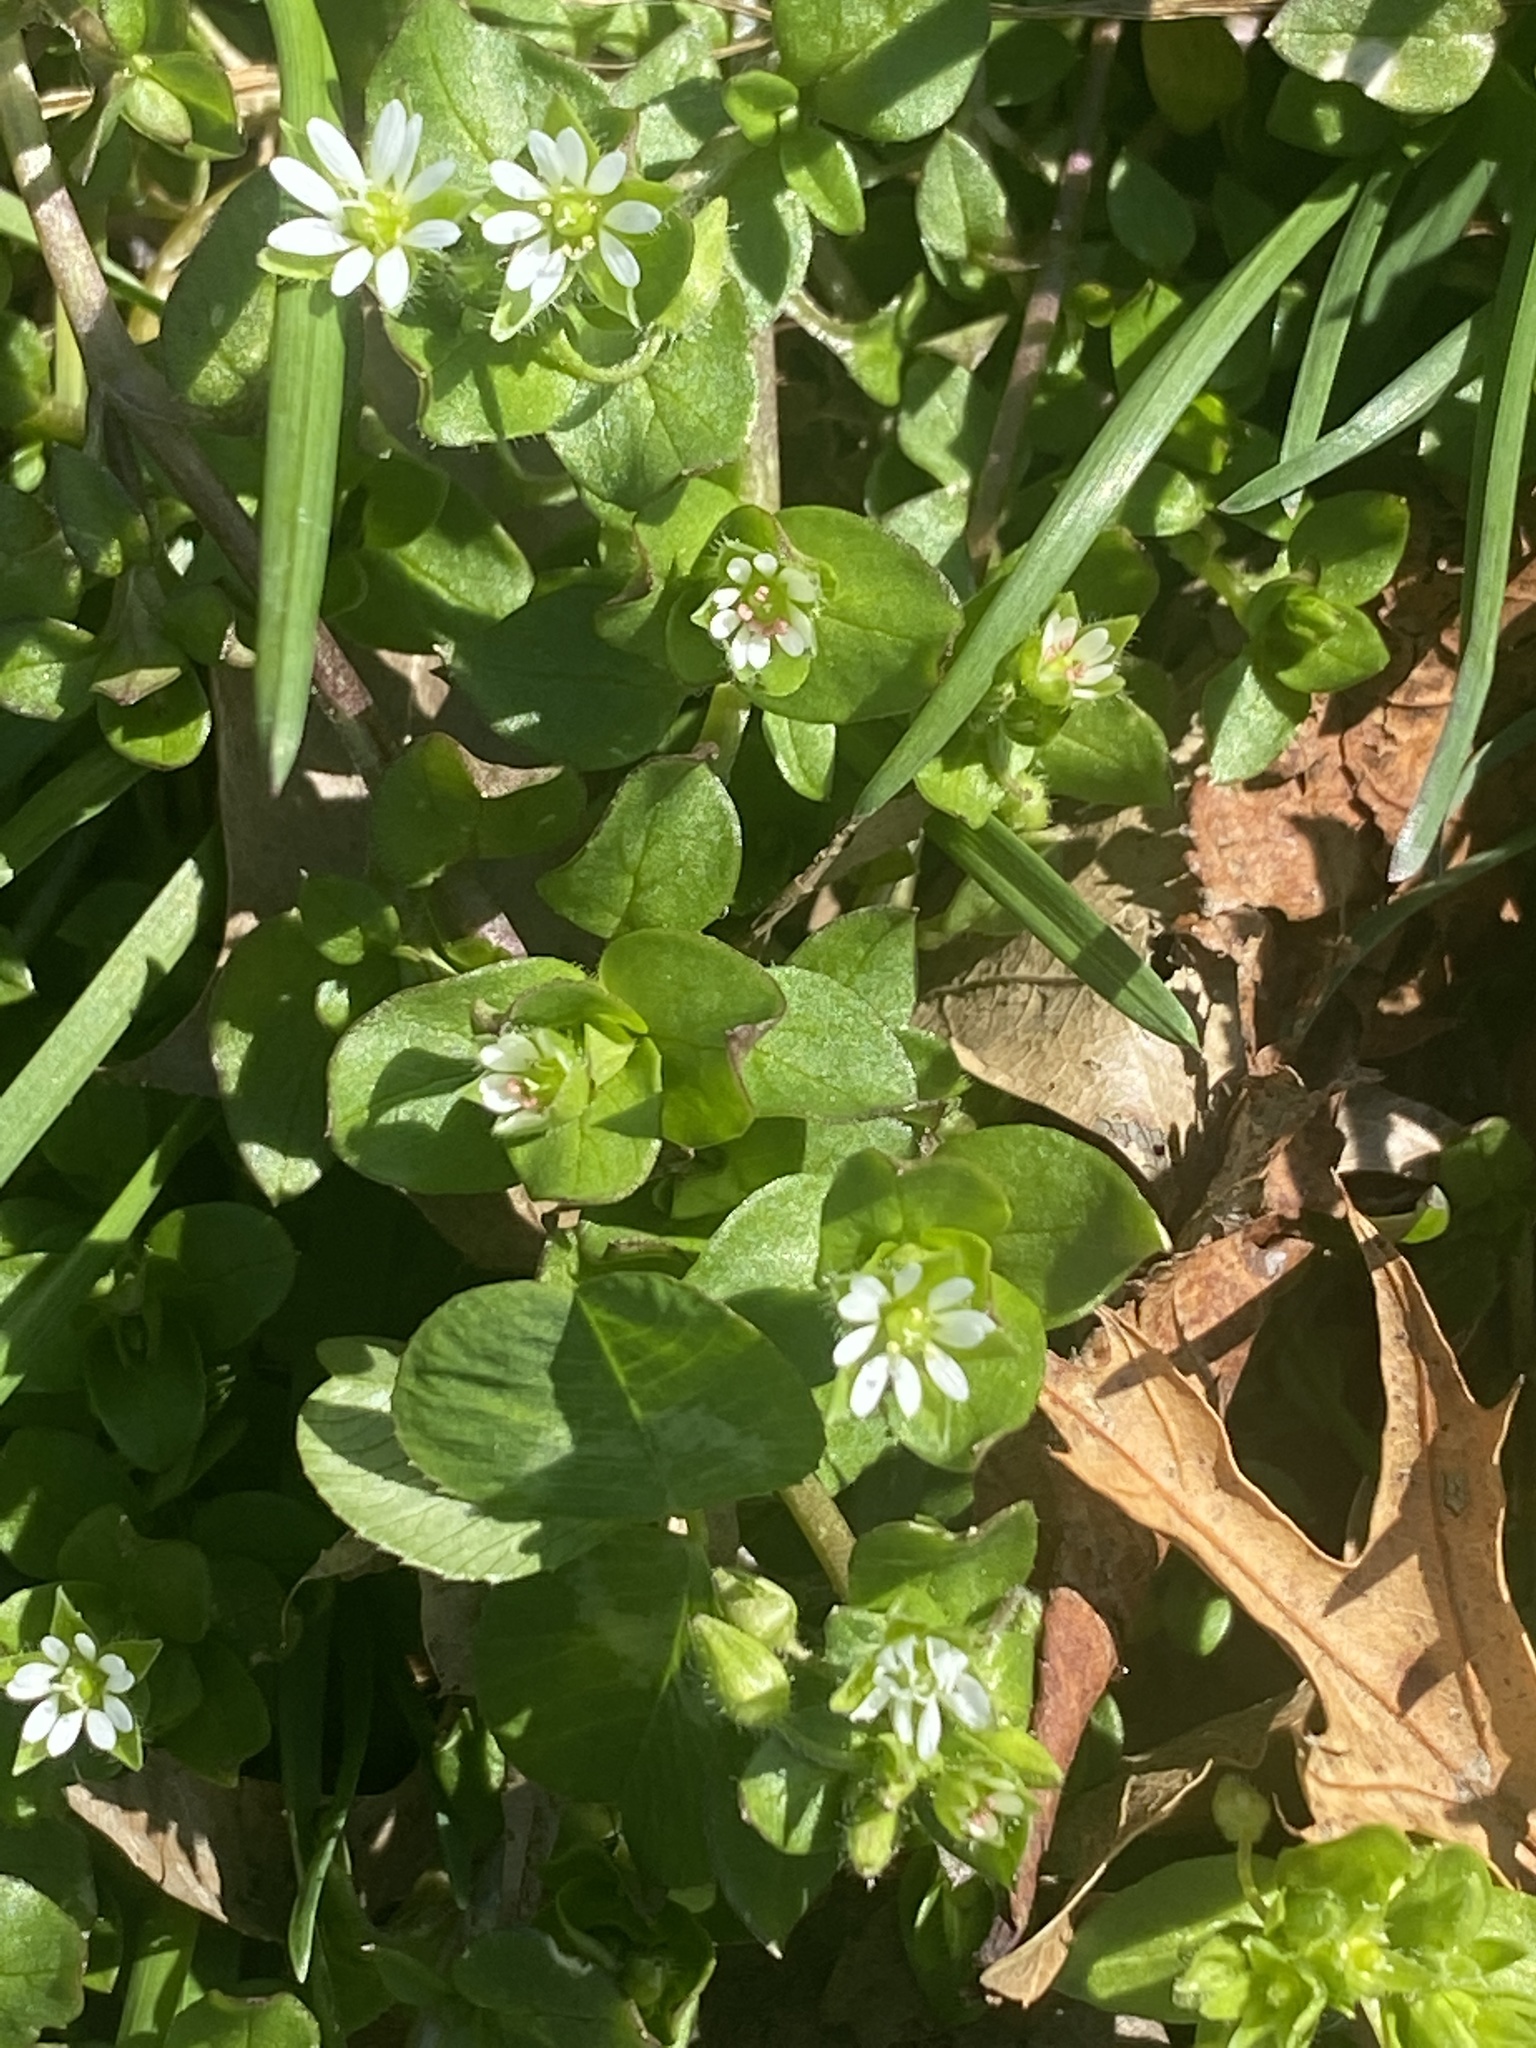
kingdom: Plantae
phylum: Tracheophyta
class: Magnoliopsida
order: Caryophyllales
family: Caryophyllaceae
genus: Stellaria
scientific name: Stellaria media
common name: Common chickweed
